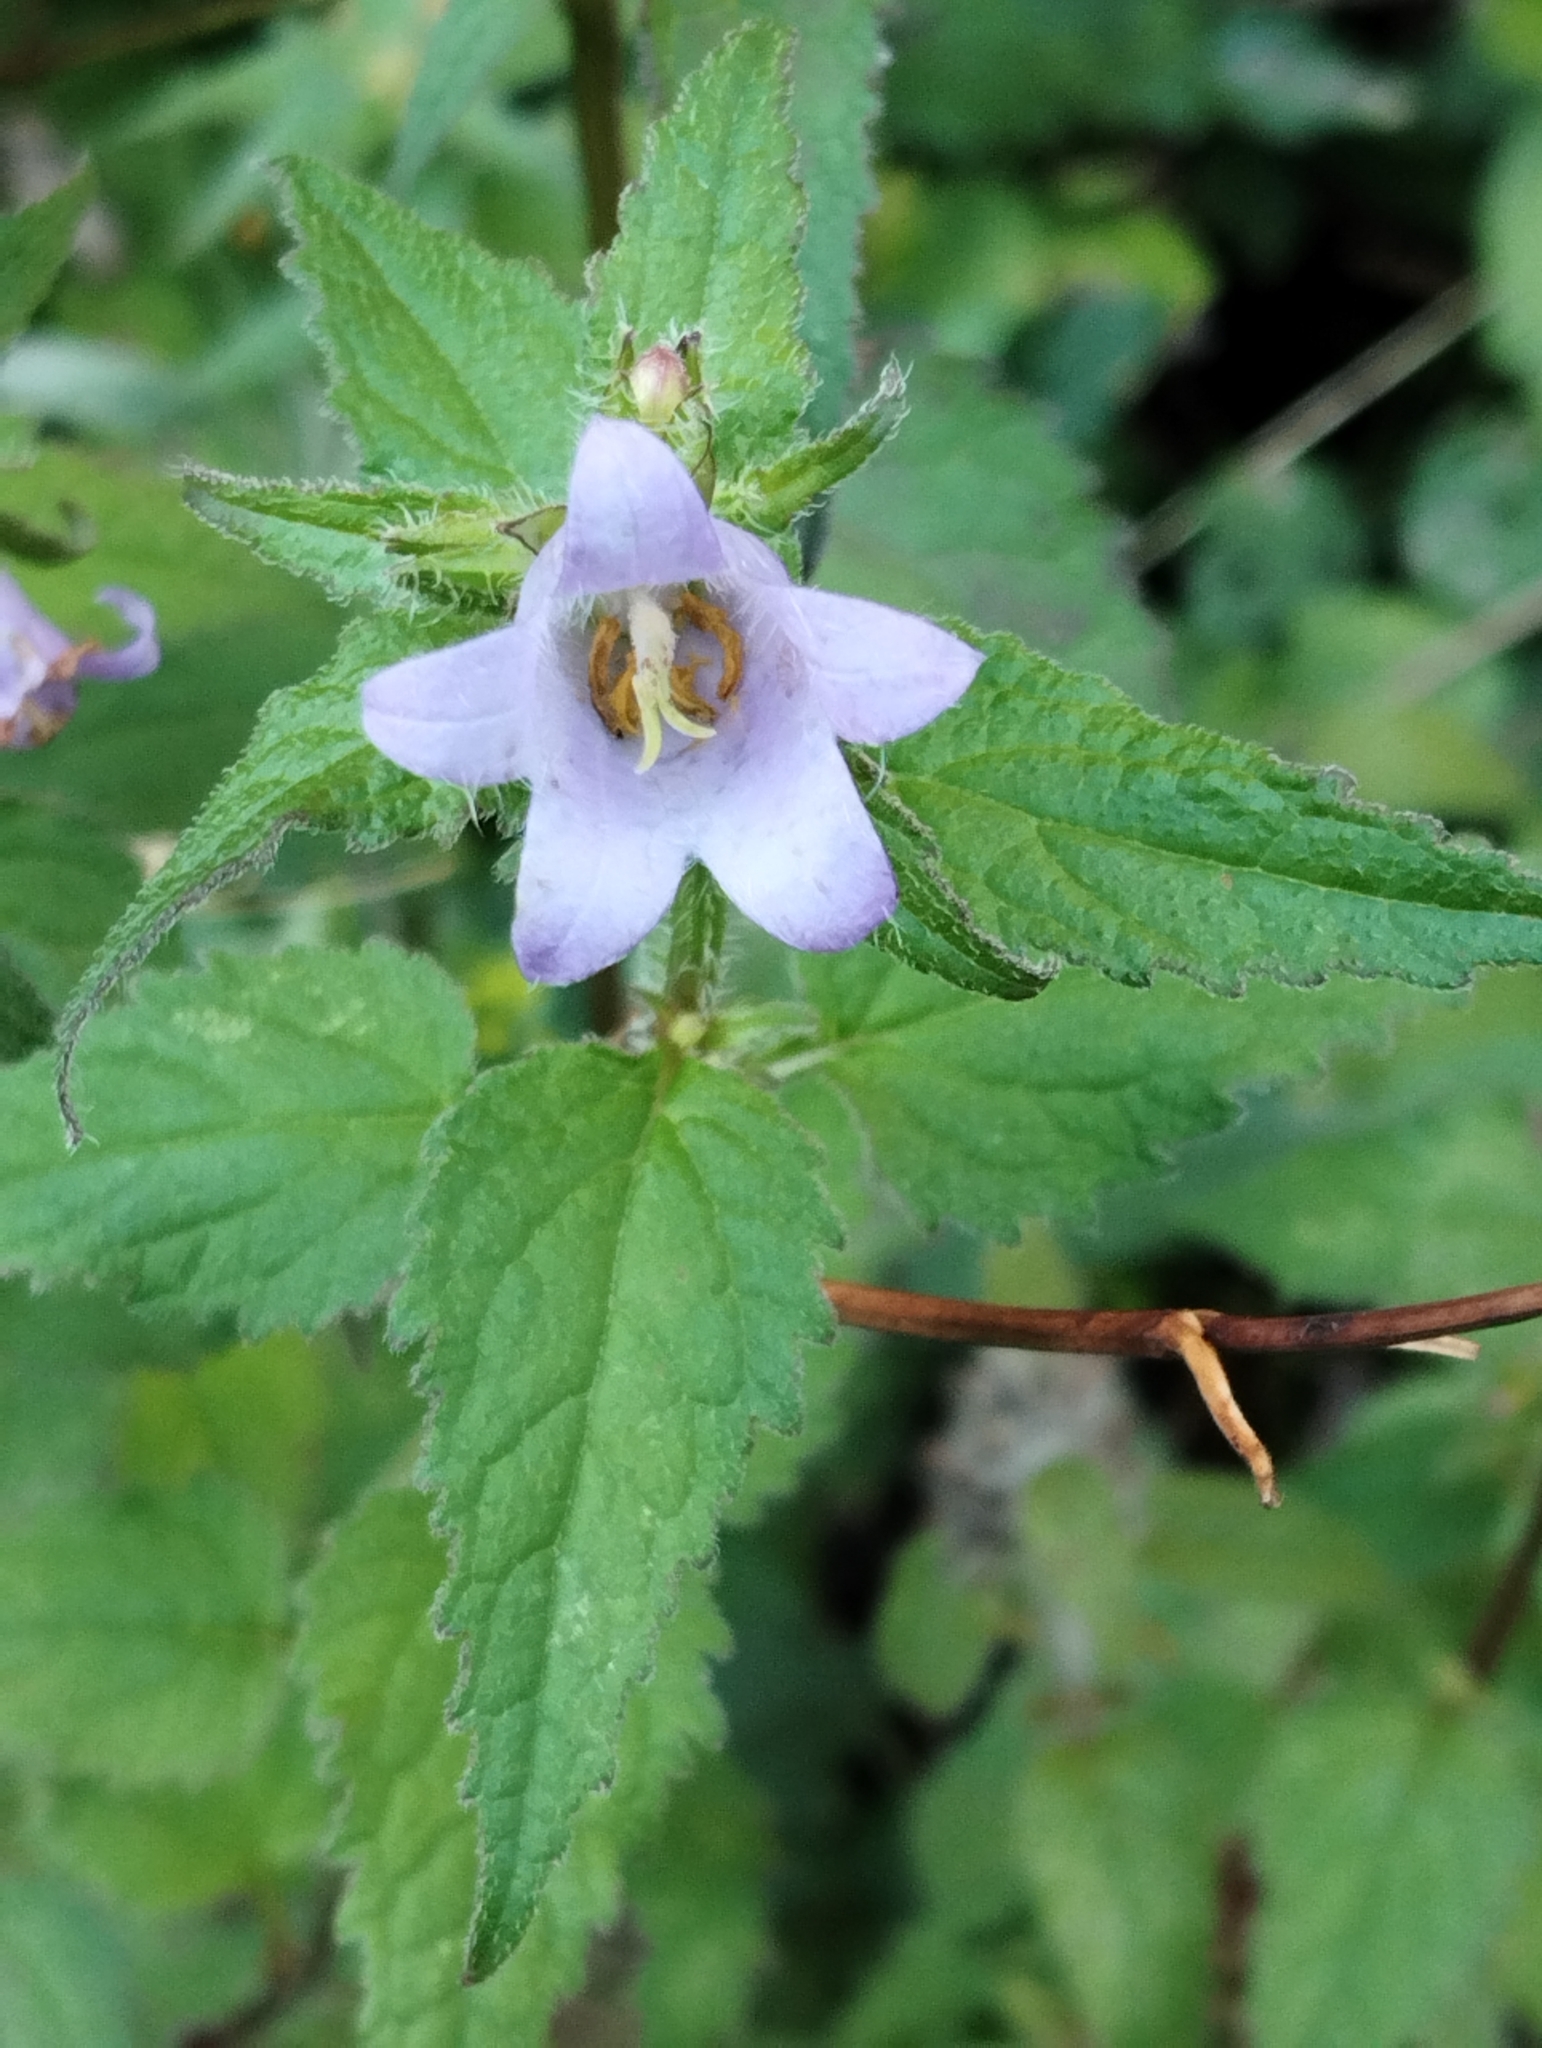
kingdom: Plantae
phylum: Tracheophyta
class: Magnoliopsida
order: Asterales
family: Campanulaceae
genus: Campanula
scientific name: Campanula trachelium
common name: Nettle-leaved bellflower
